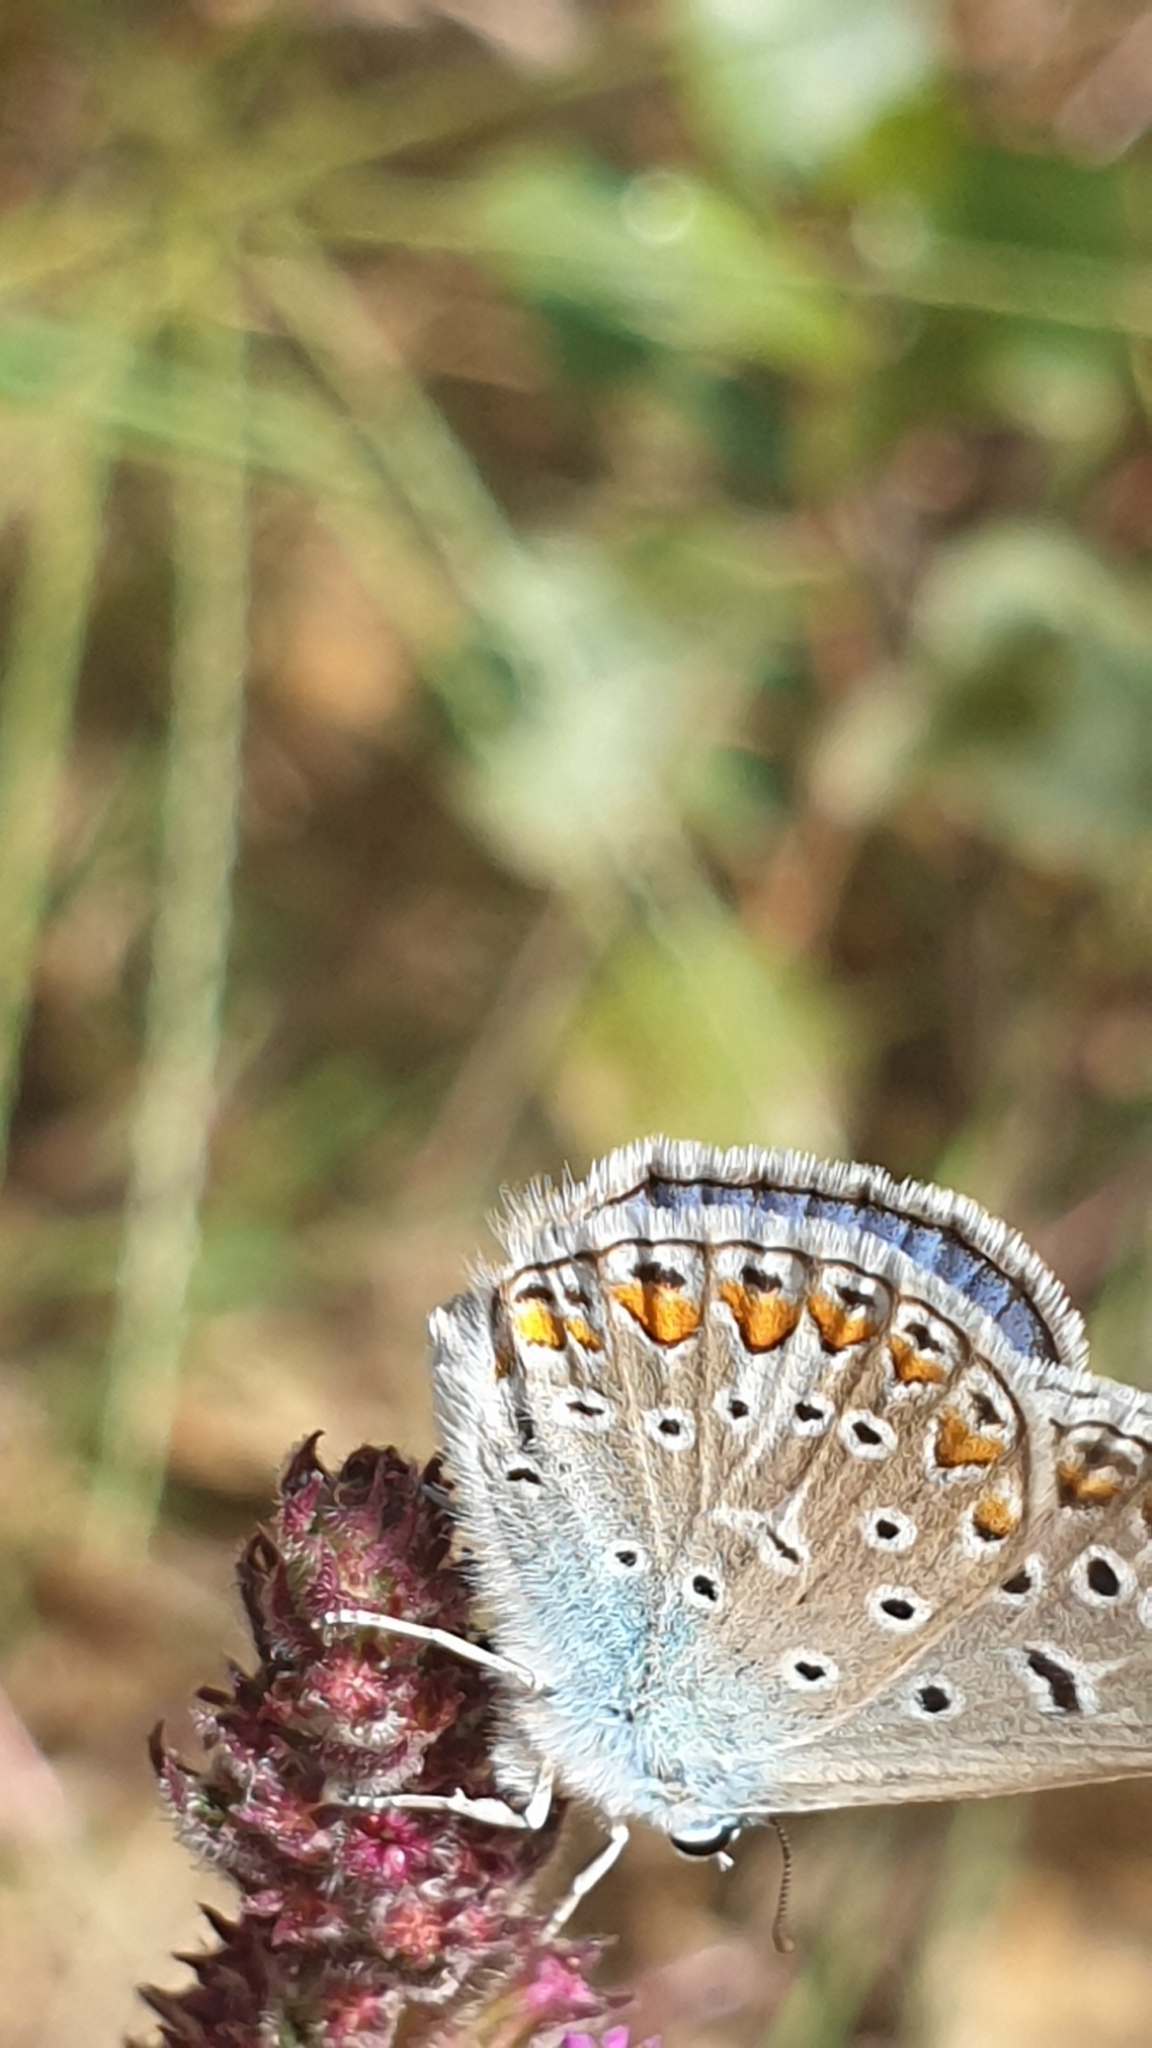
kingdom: Animalia
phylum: Arthropoda
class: Insecta
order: Lepidoptera
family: Lycaenidae
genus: Polyommatus
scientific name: Polyommatus icarus
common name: Common blue
